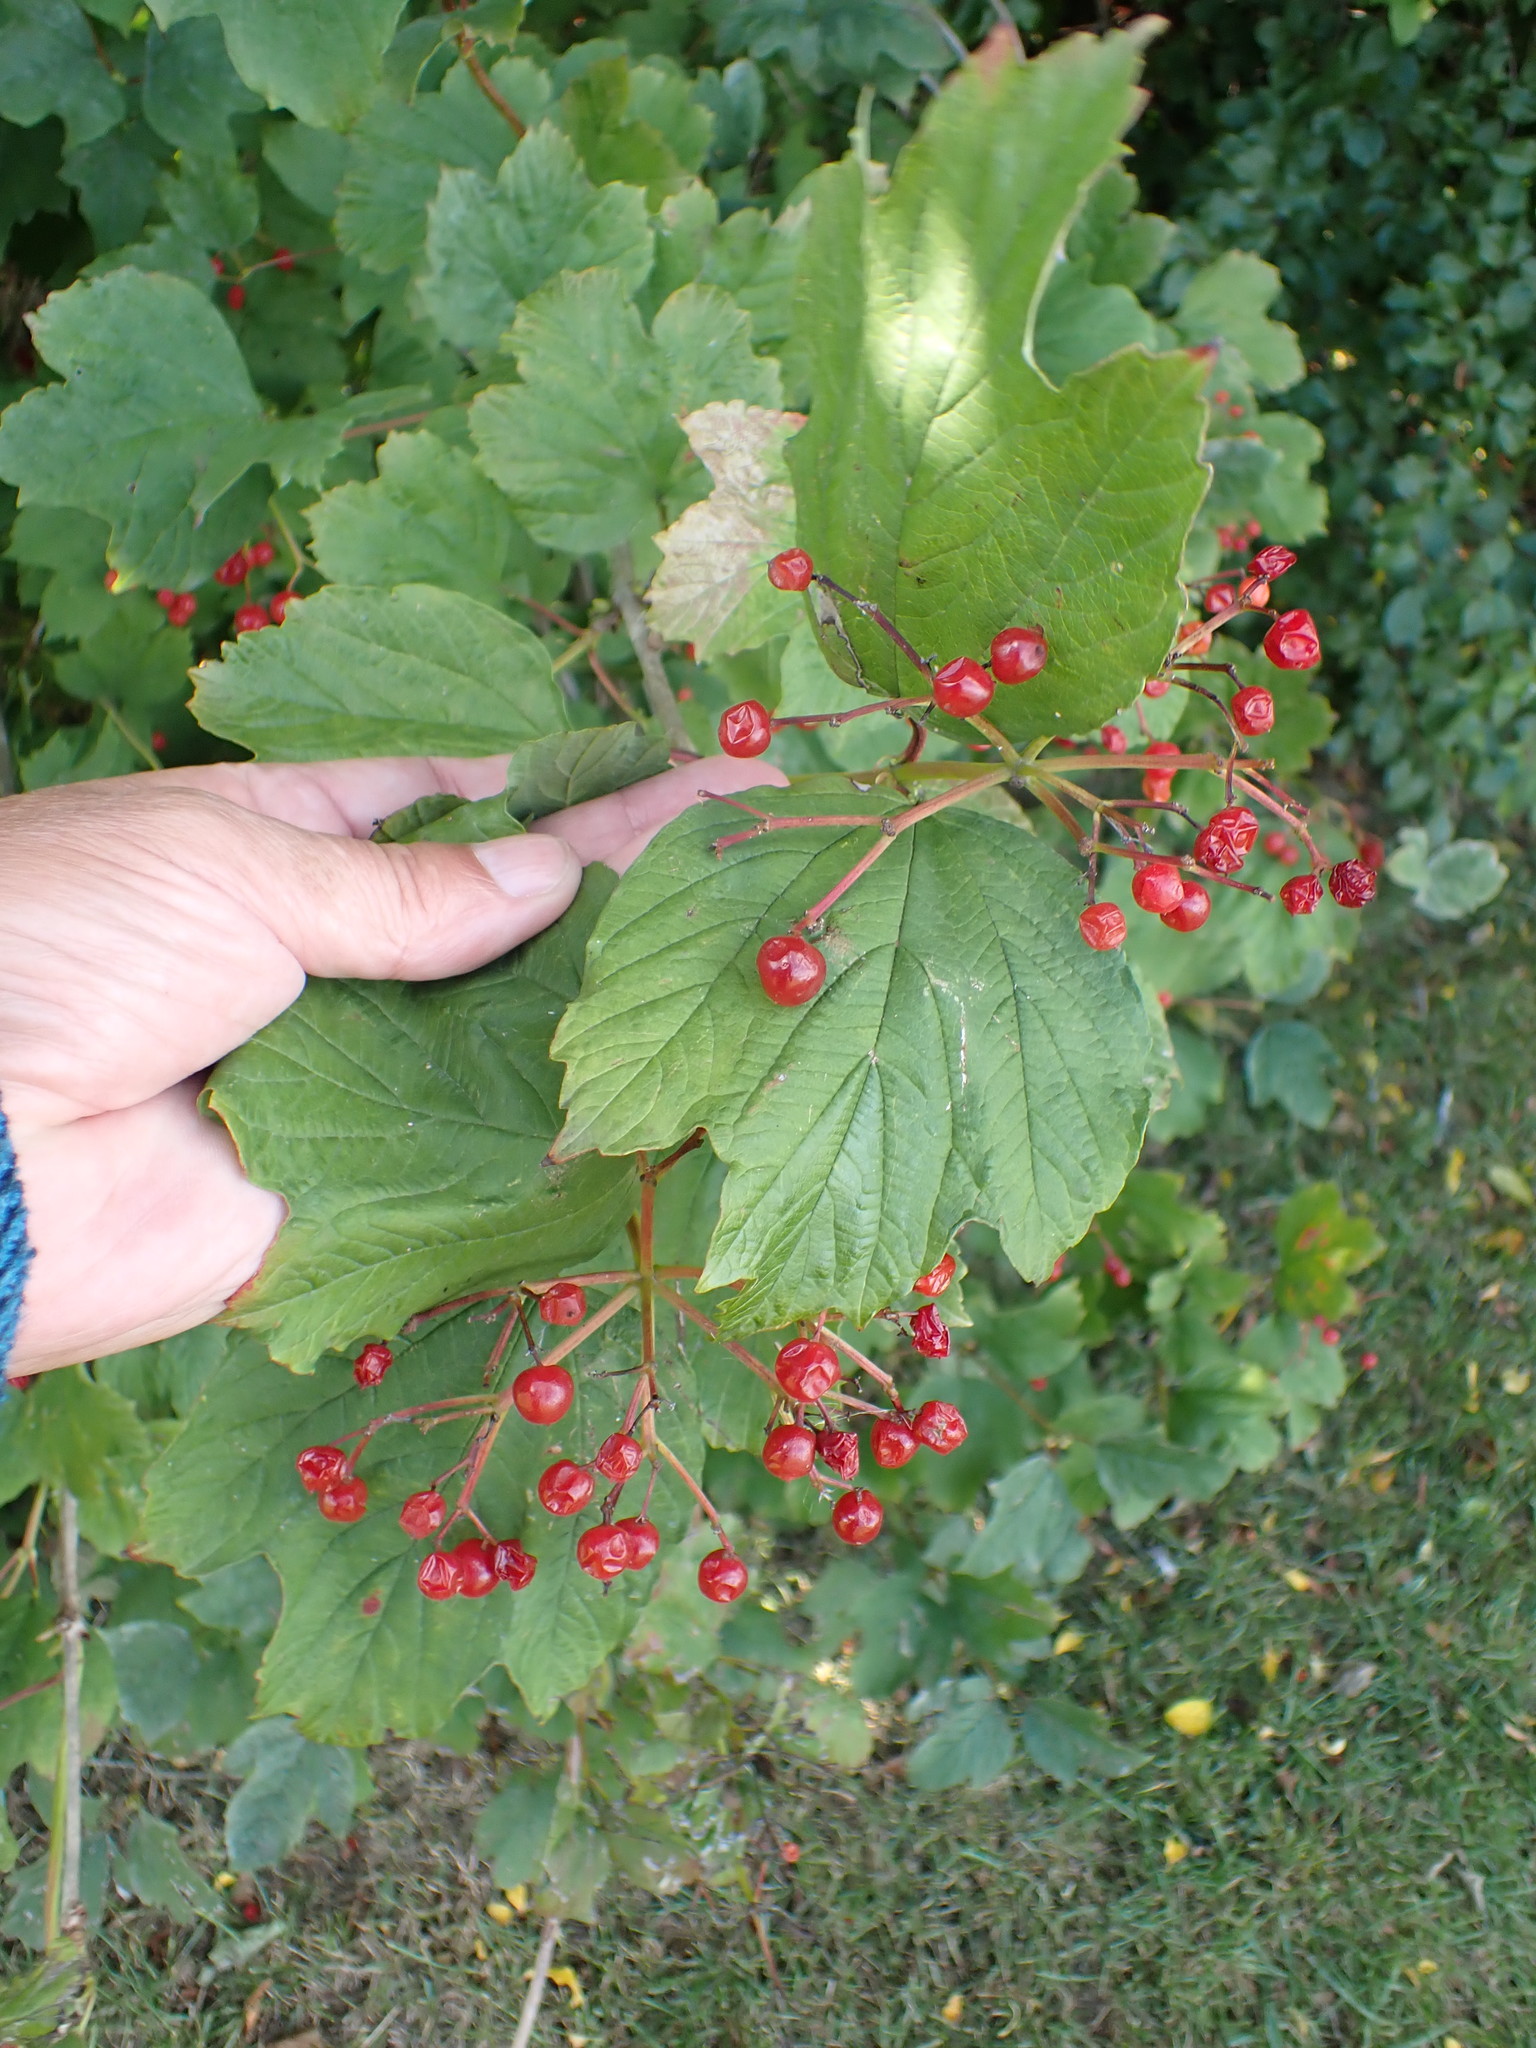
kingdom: Plantae
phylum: Tracheophyta
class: Magnoliopsida
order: Dipsacales
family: Viburnaceae
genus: Viburnum
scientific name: Viburnum opulus
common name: Guelder-rose
